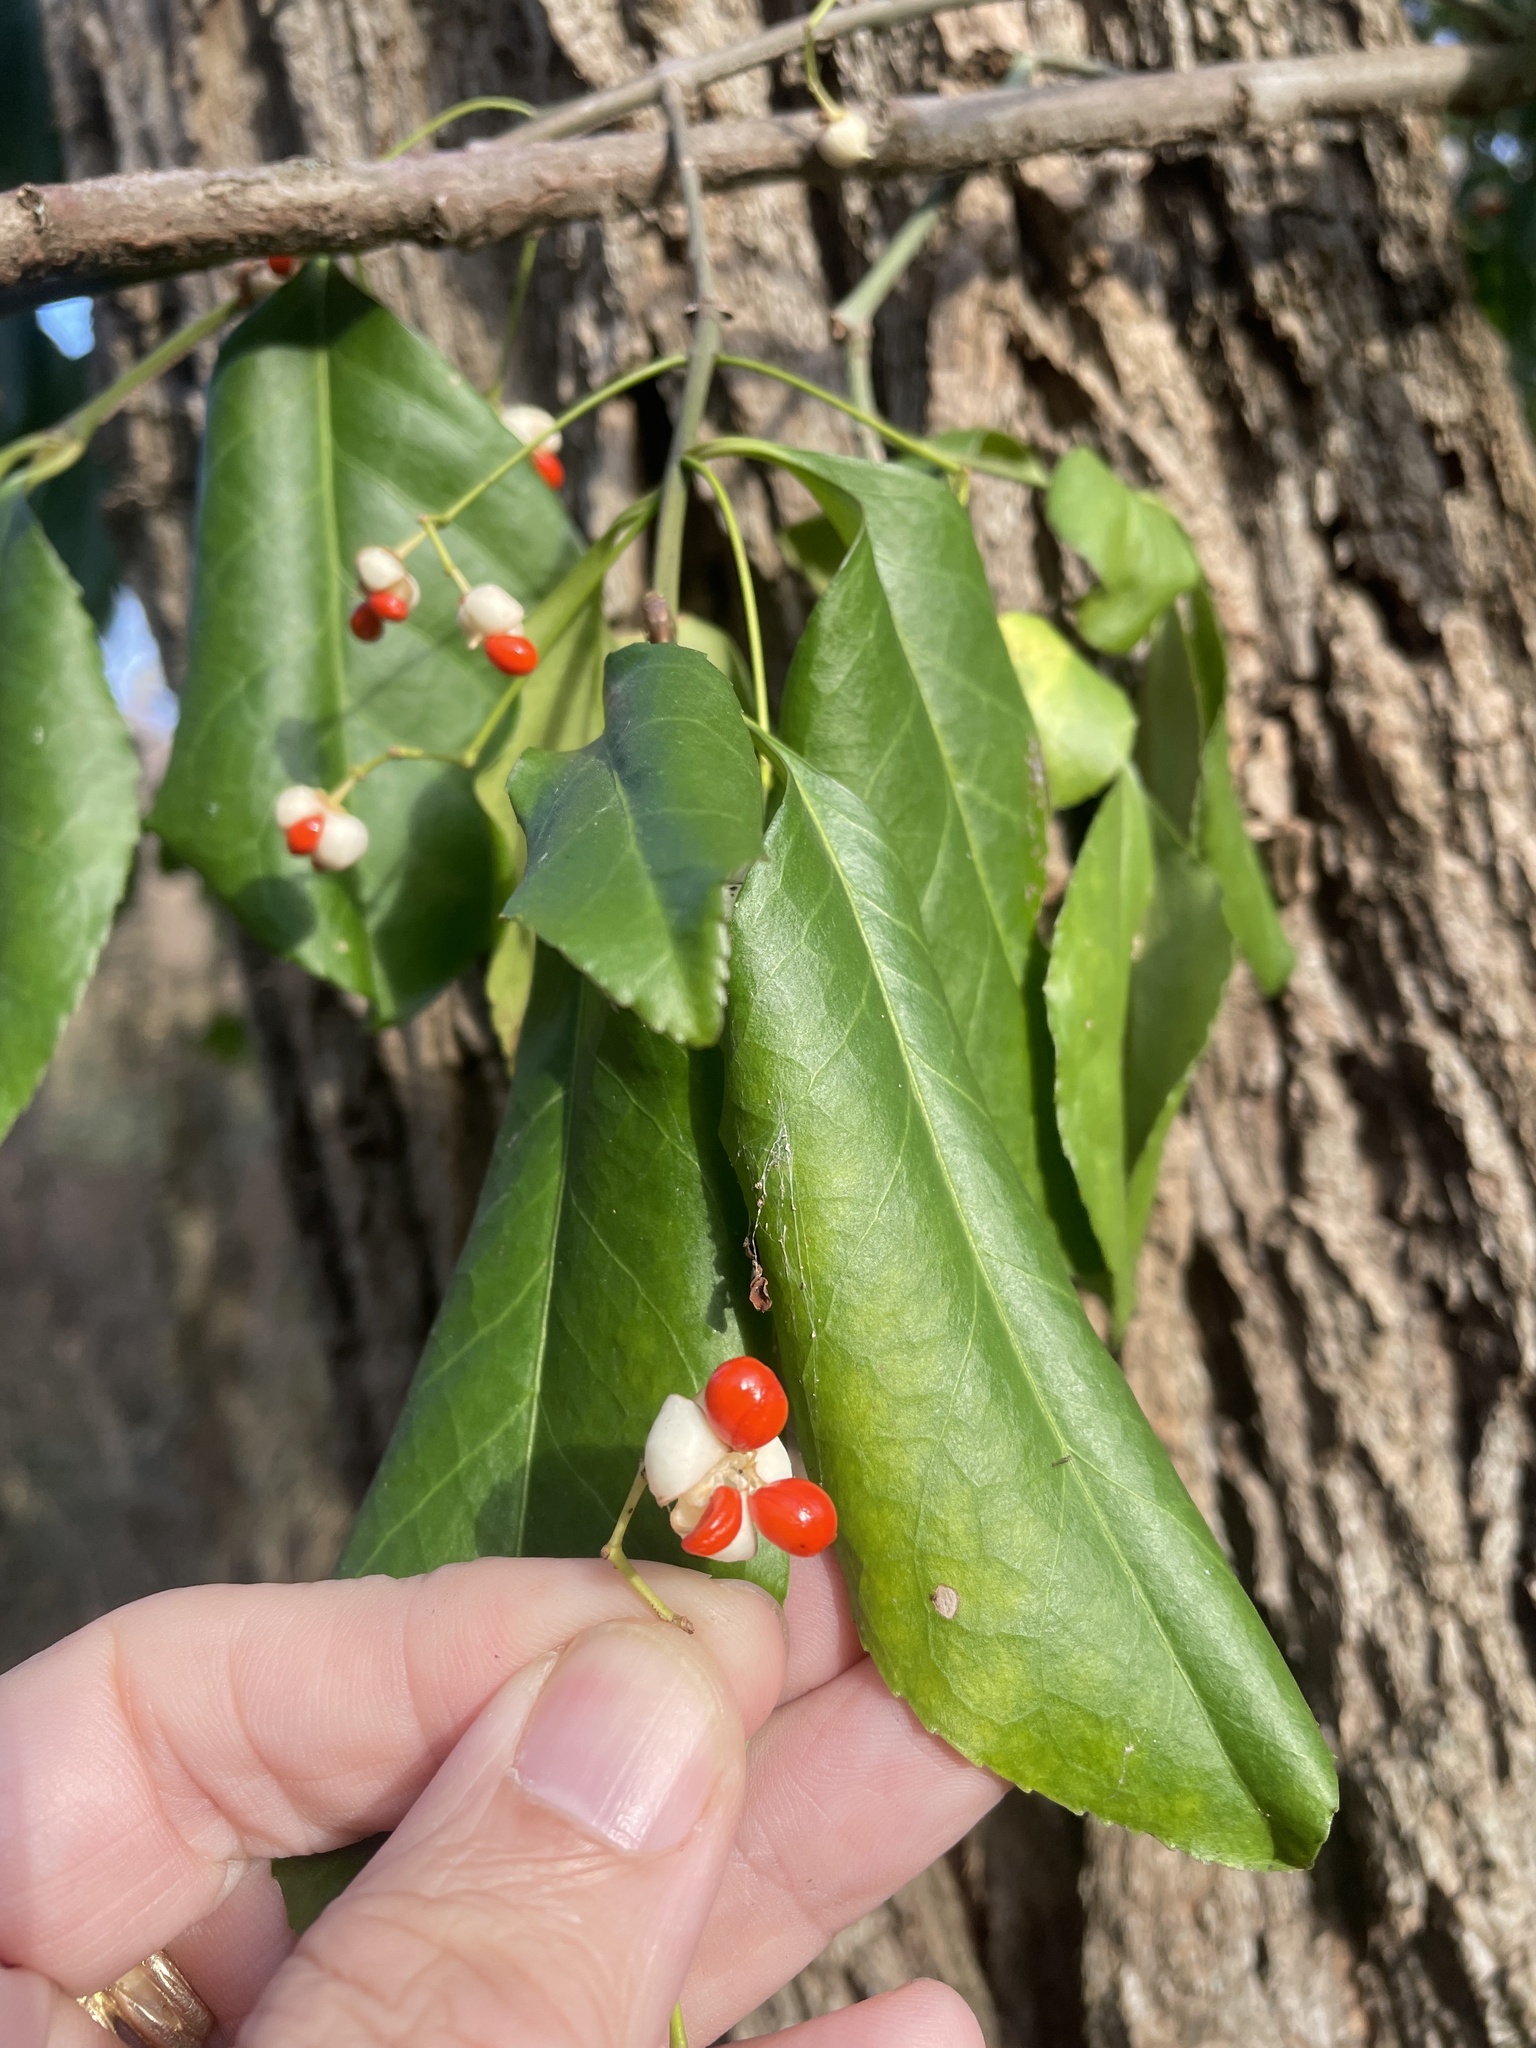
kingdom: Plantae
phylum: Tracheophyta
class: Magnoliopsida
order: Celastrales
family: Celastraceae
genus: Euonymus
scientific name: Euonymus fortunei
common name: Climbing euonymus
